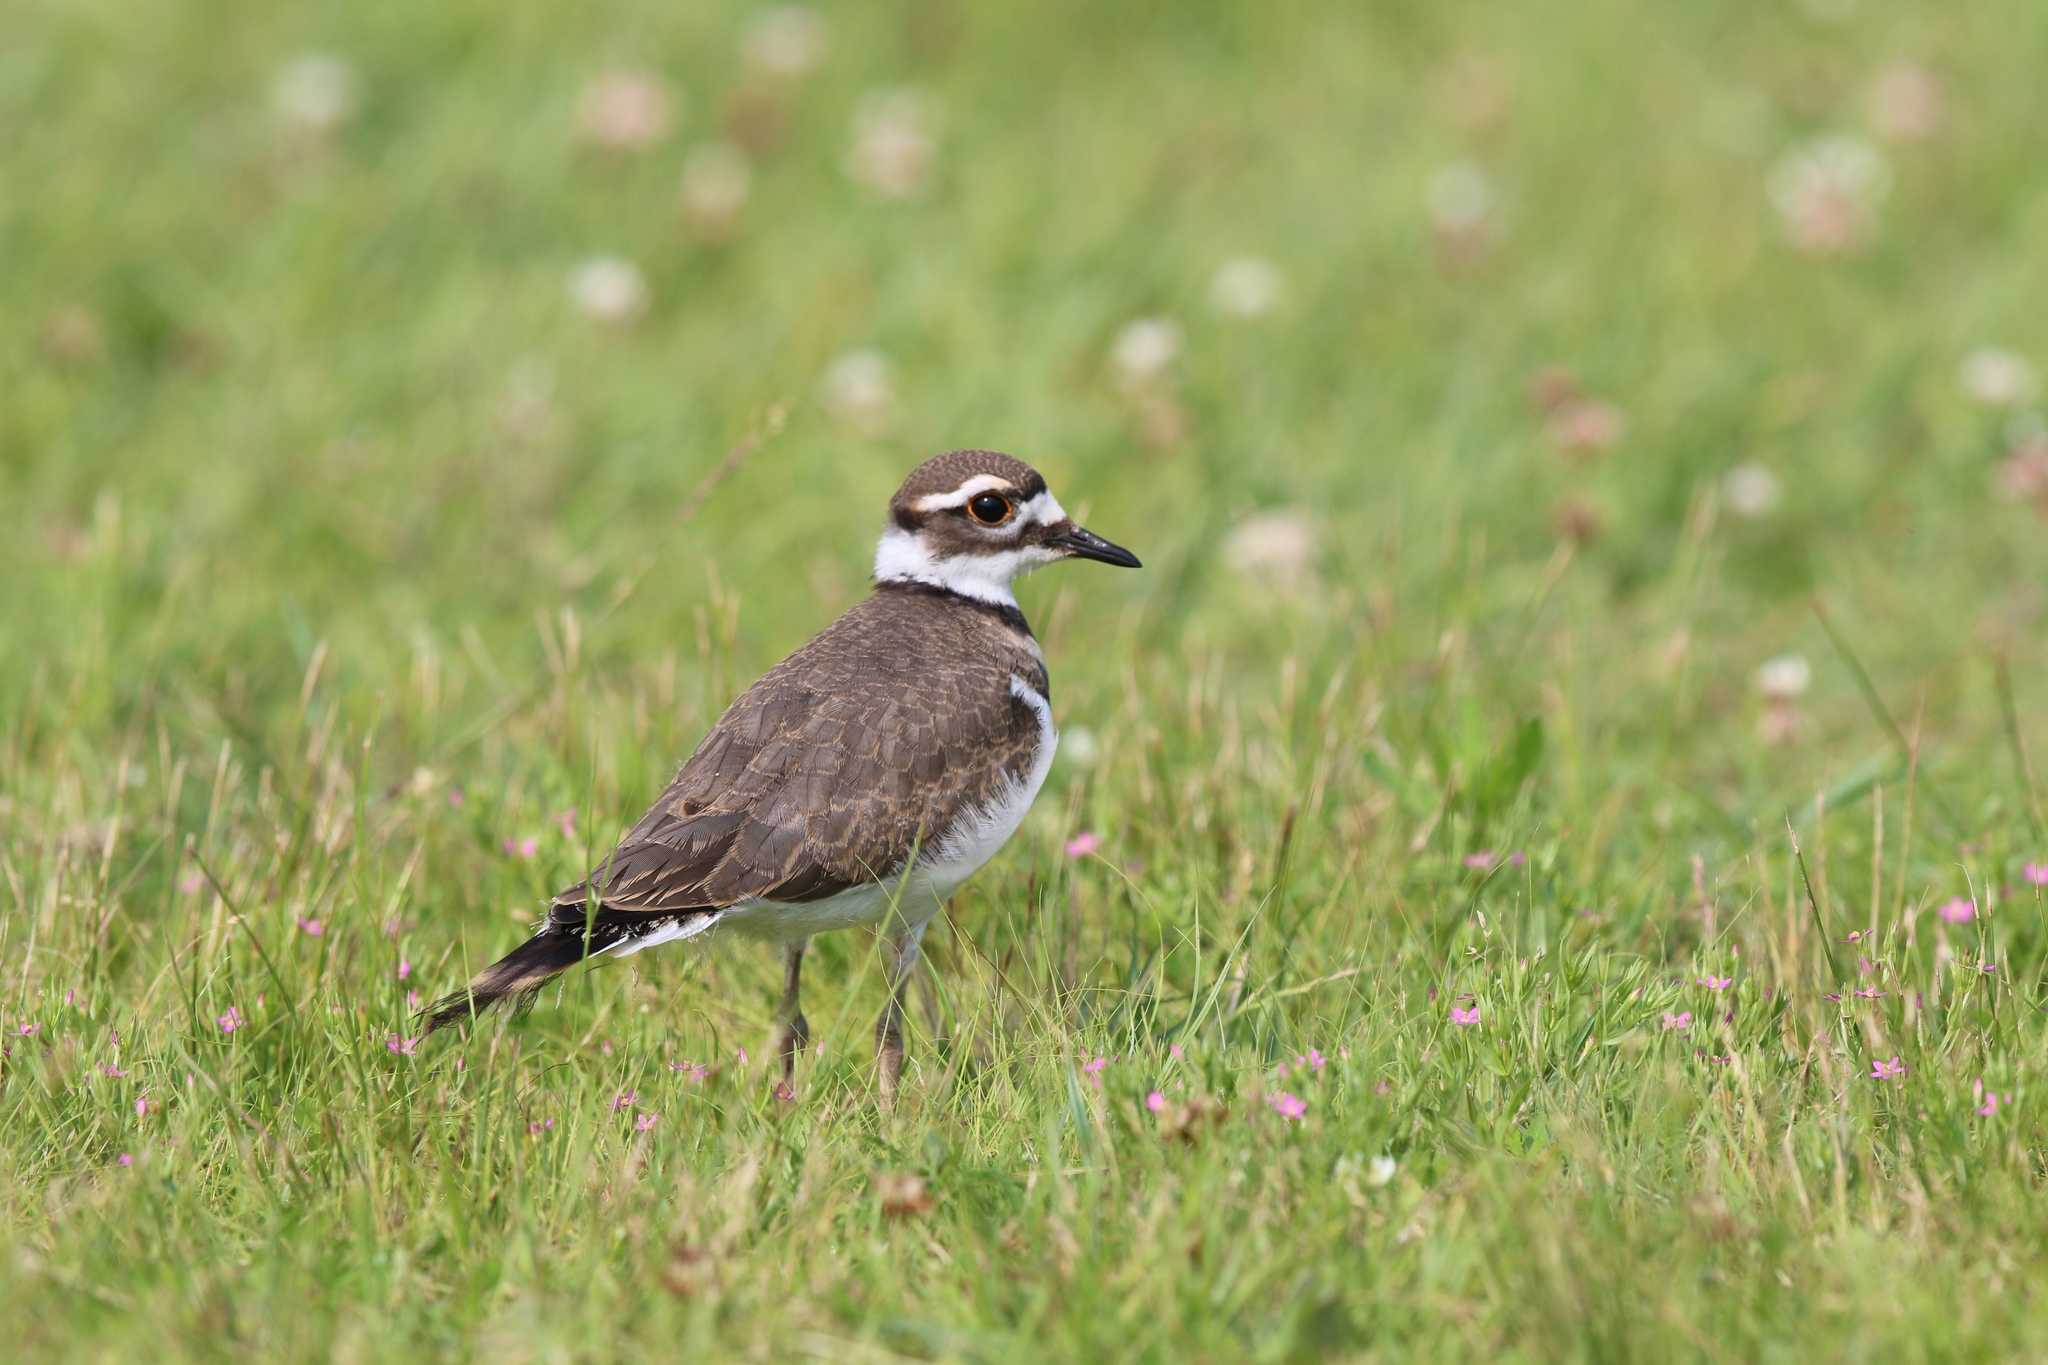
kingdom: Animalia
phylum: Chordata
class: Aves
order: Charadriiformes
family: Charadriidae
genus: Charadrius
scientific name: Charadrius vociferus
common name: Killdeer
